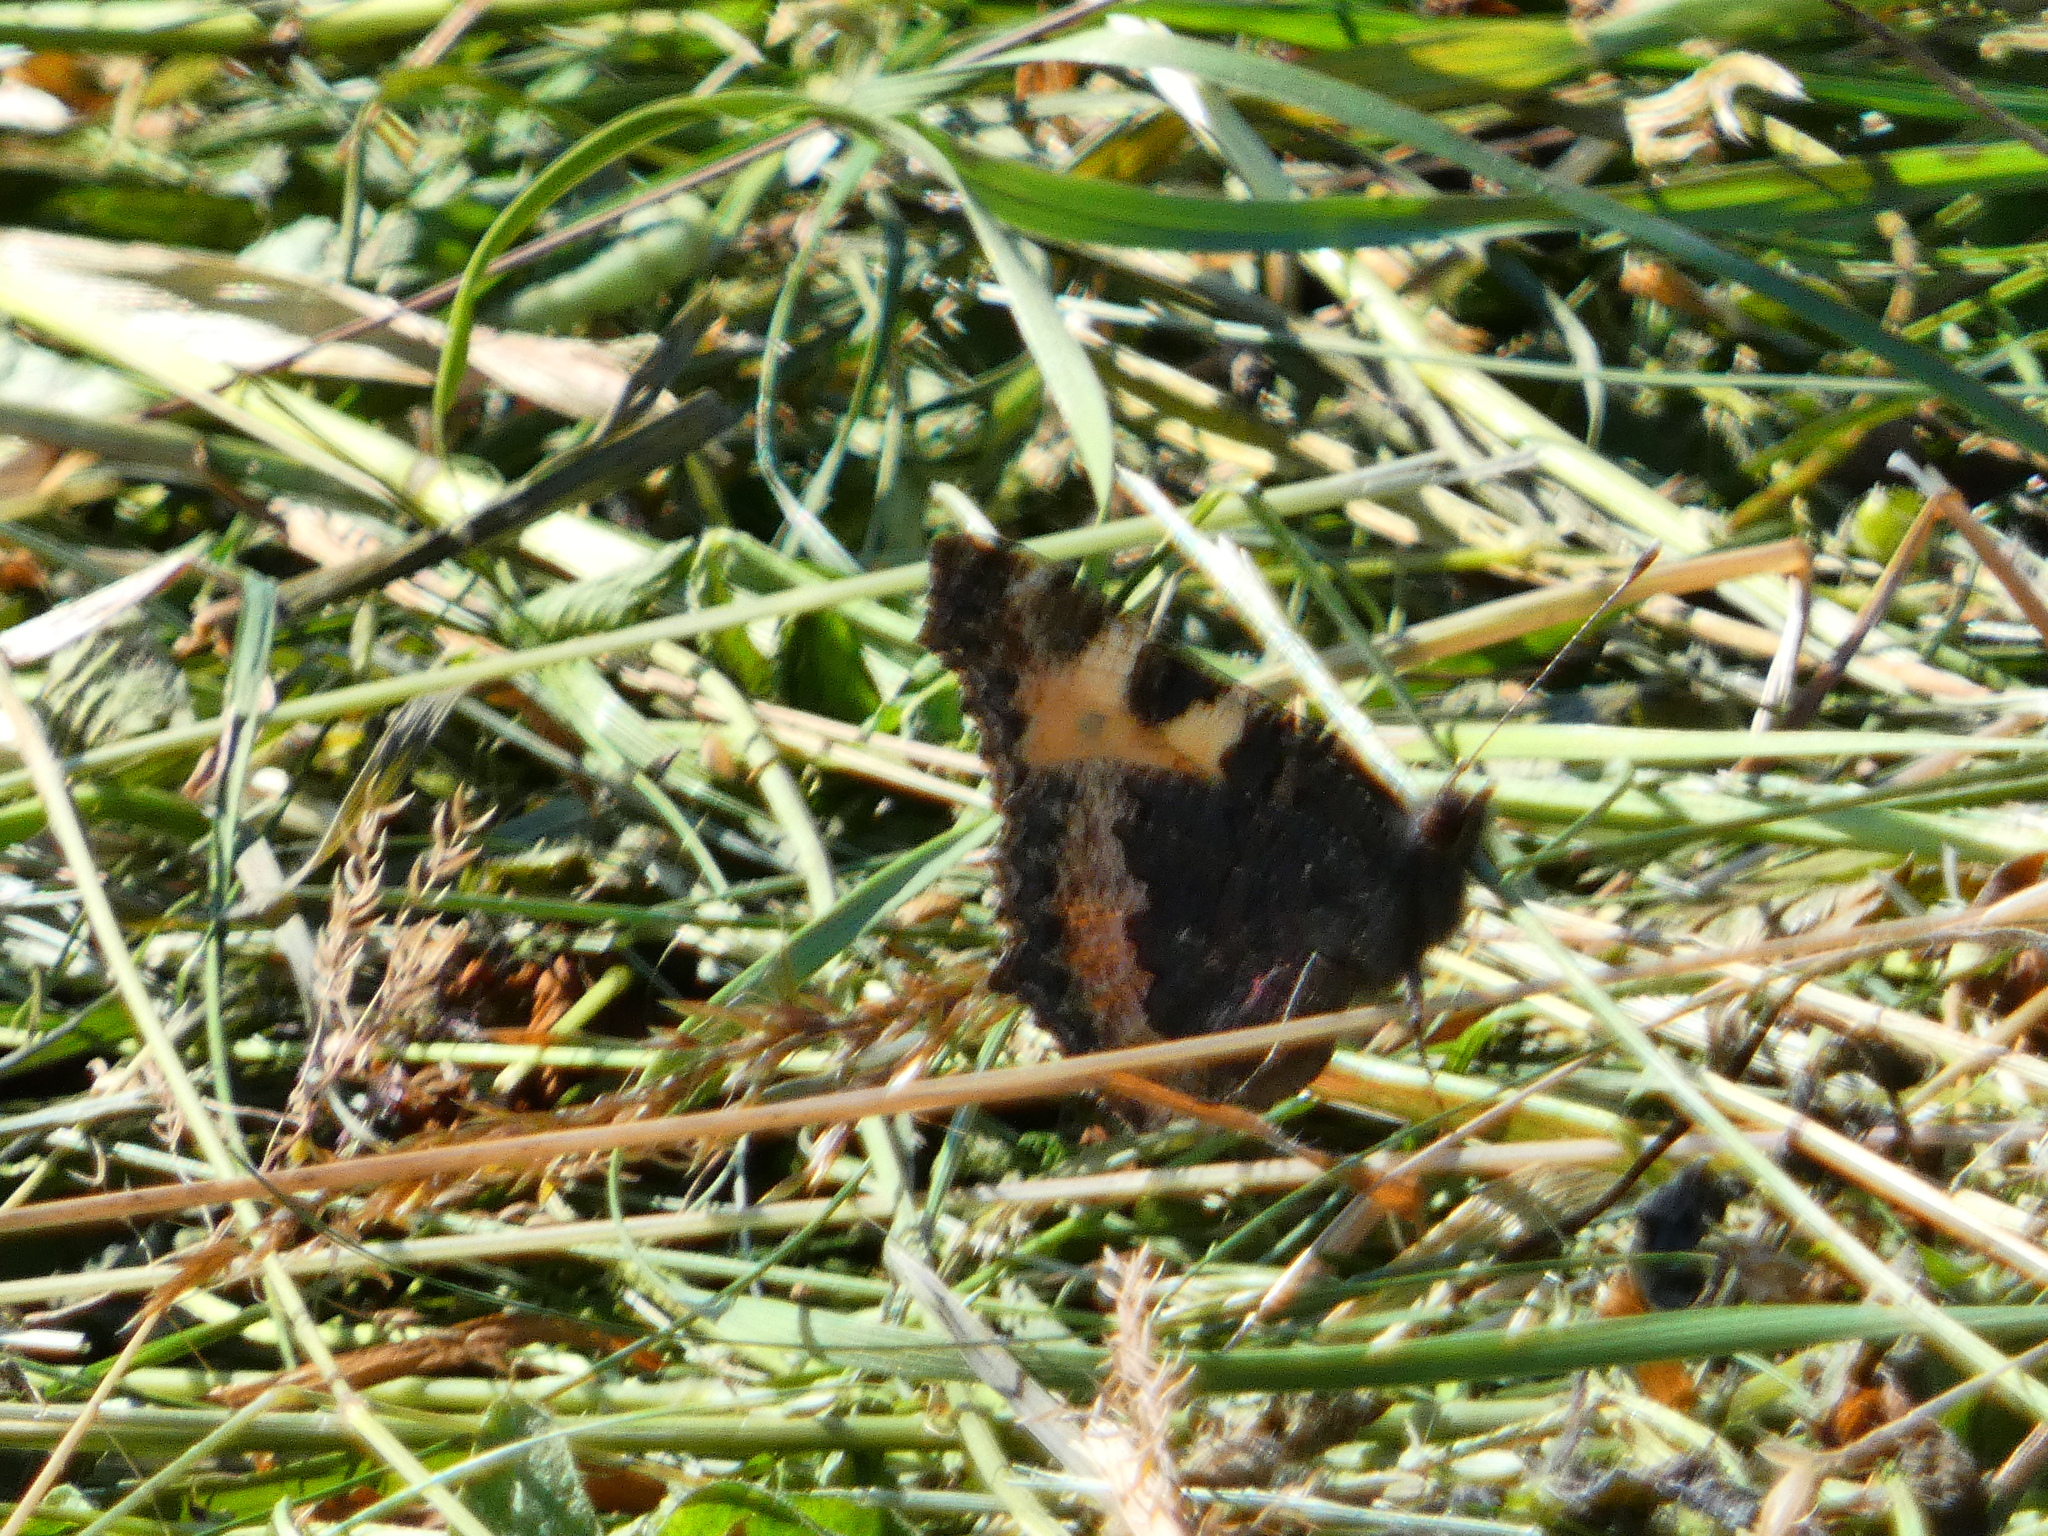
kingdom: Animalia
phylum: Arthropoda
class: Insecta
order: Lepidoptera
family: Nymphalidae
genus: Aglais
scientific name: Aglais urticae
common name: Small tortoiseshell
